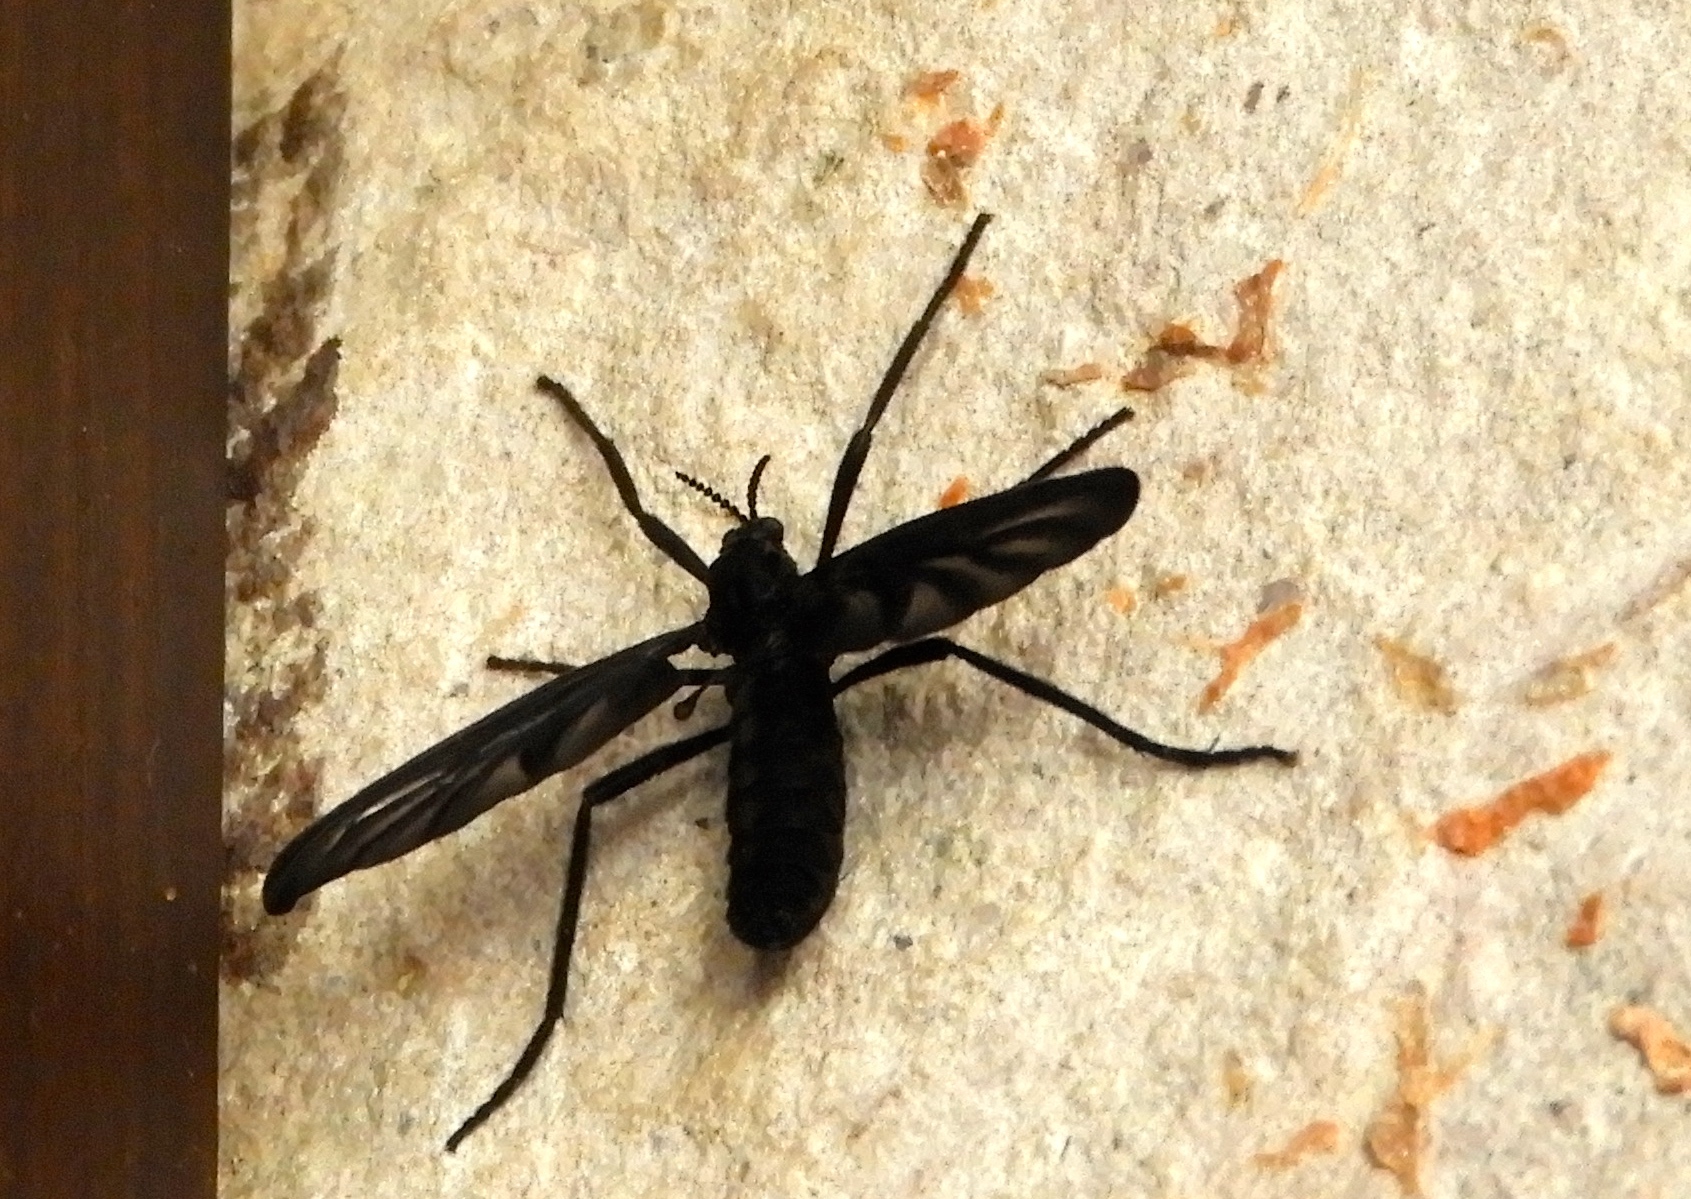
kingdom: Animalia
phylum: Arthropoda
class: Insecta
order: Diptera
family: Bibionidae
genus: Plecia
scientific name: Plecia plagiata
